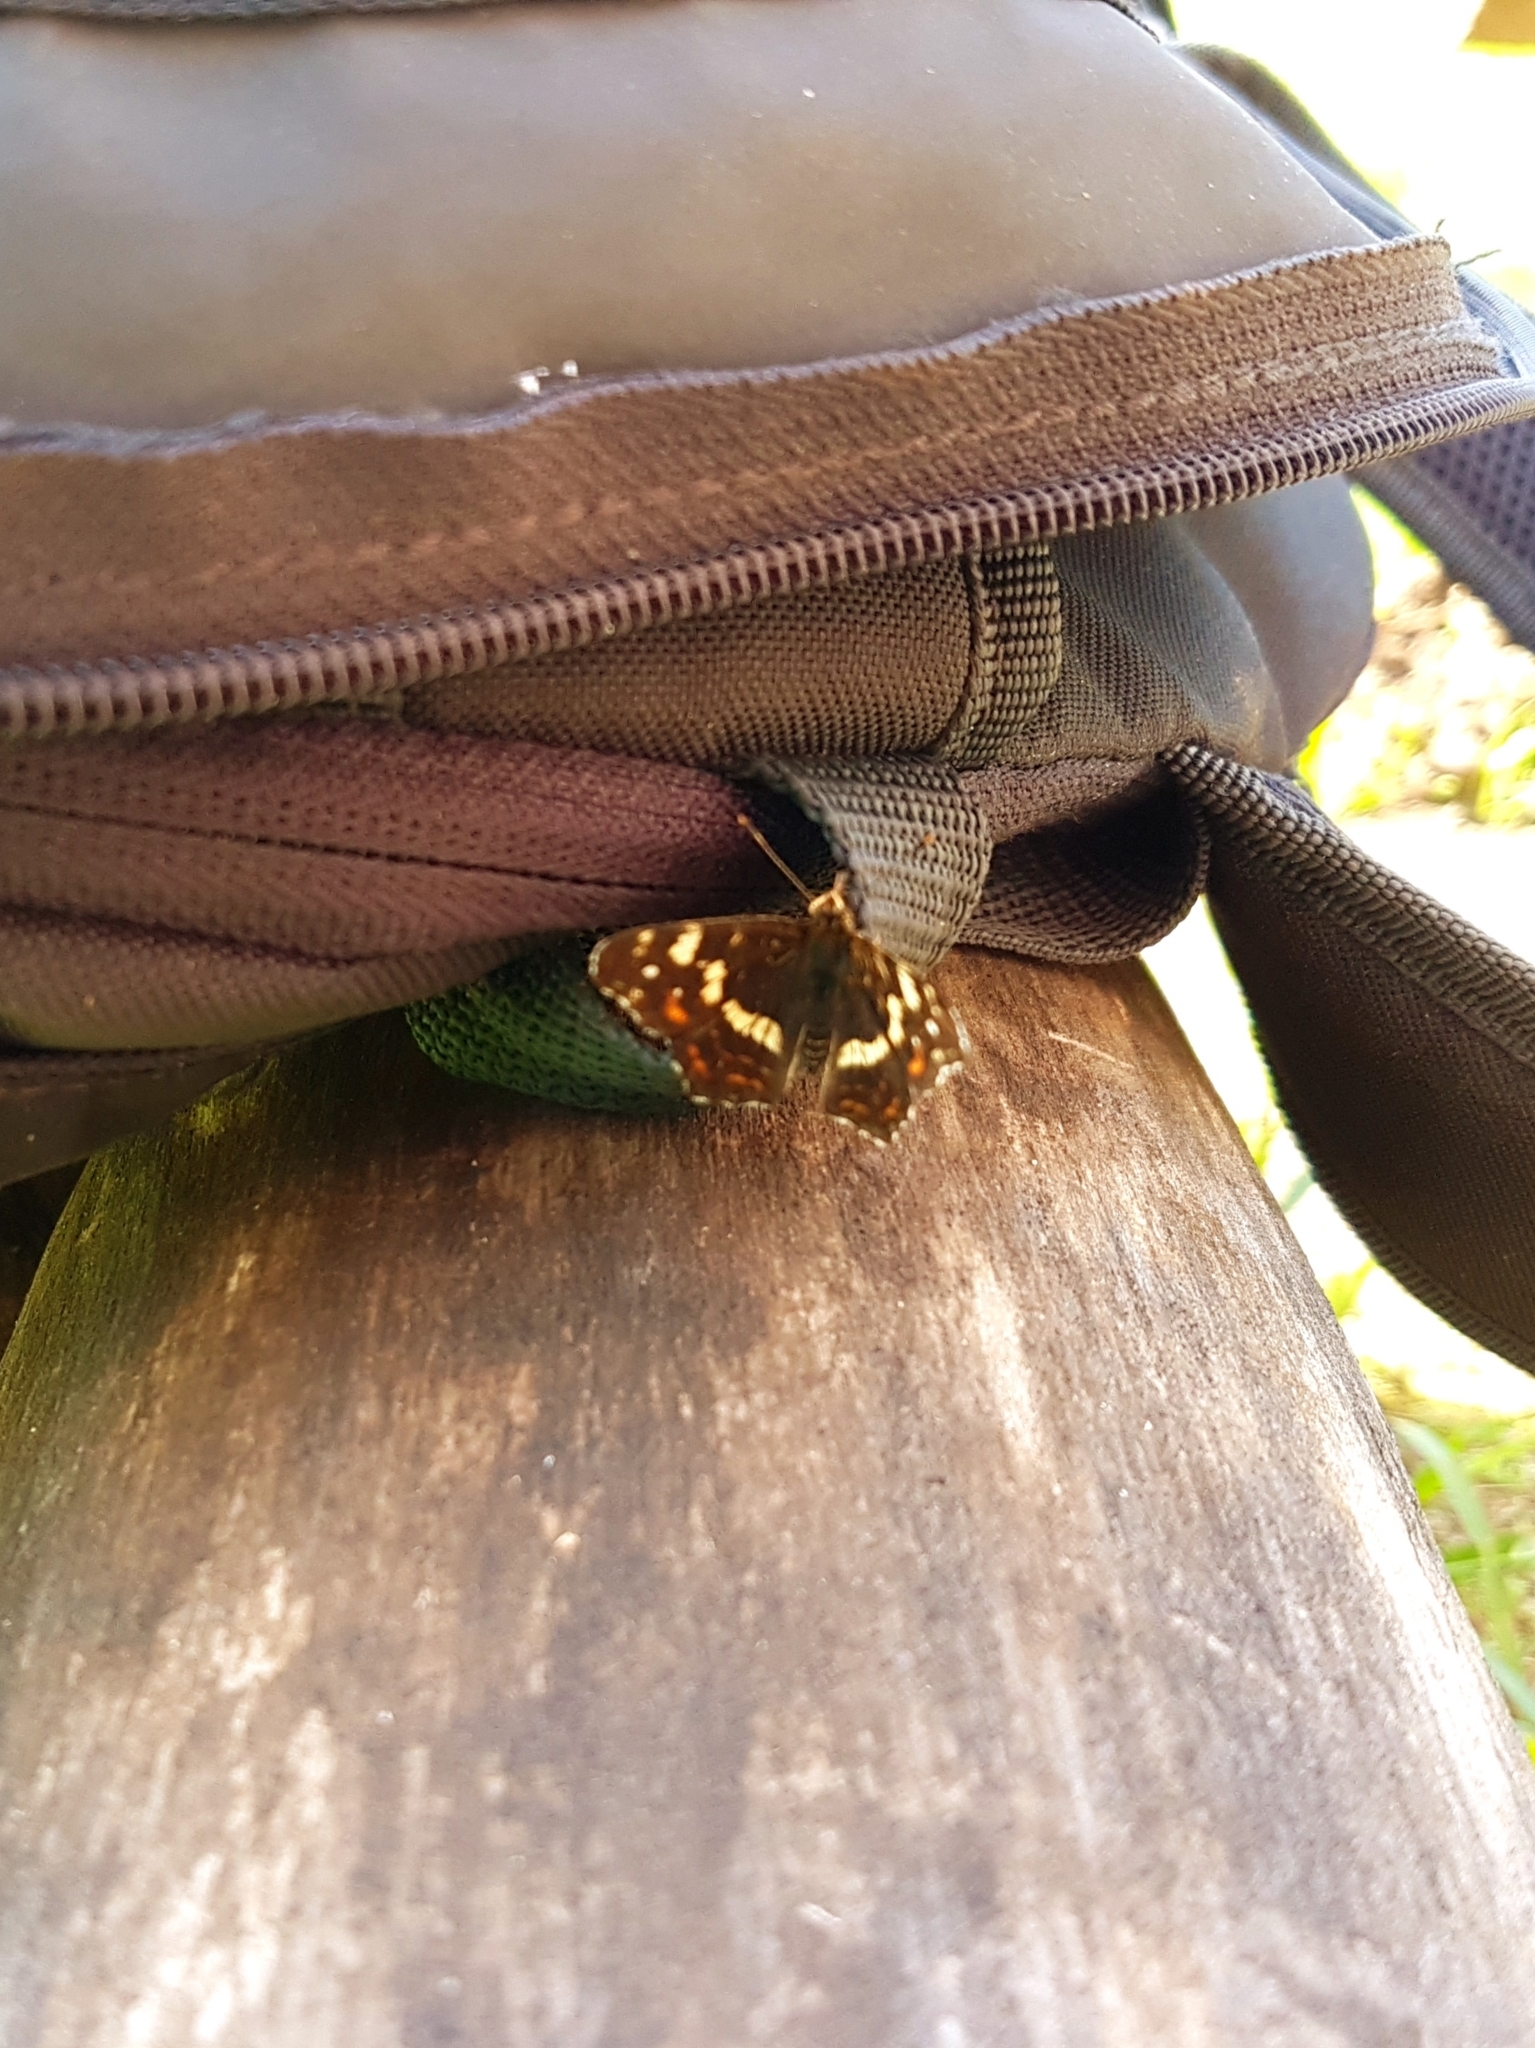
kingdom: Animalia
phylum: Arthropoda
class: Insecta
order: Lepidoptera
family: Nymphalidae
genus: Araschnia
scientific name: Araschnia levana
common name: Map butterfly
